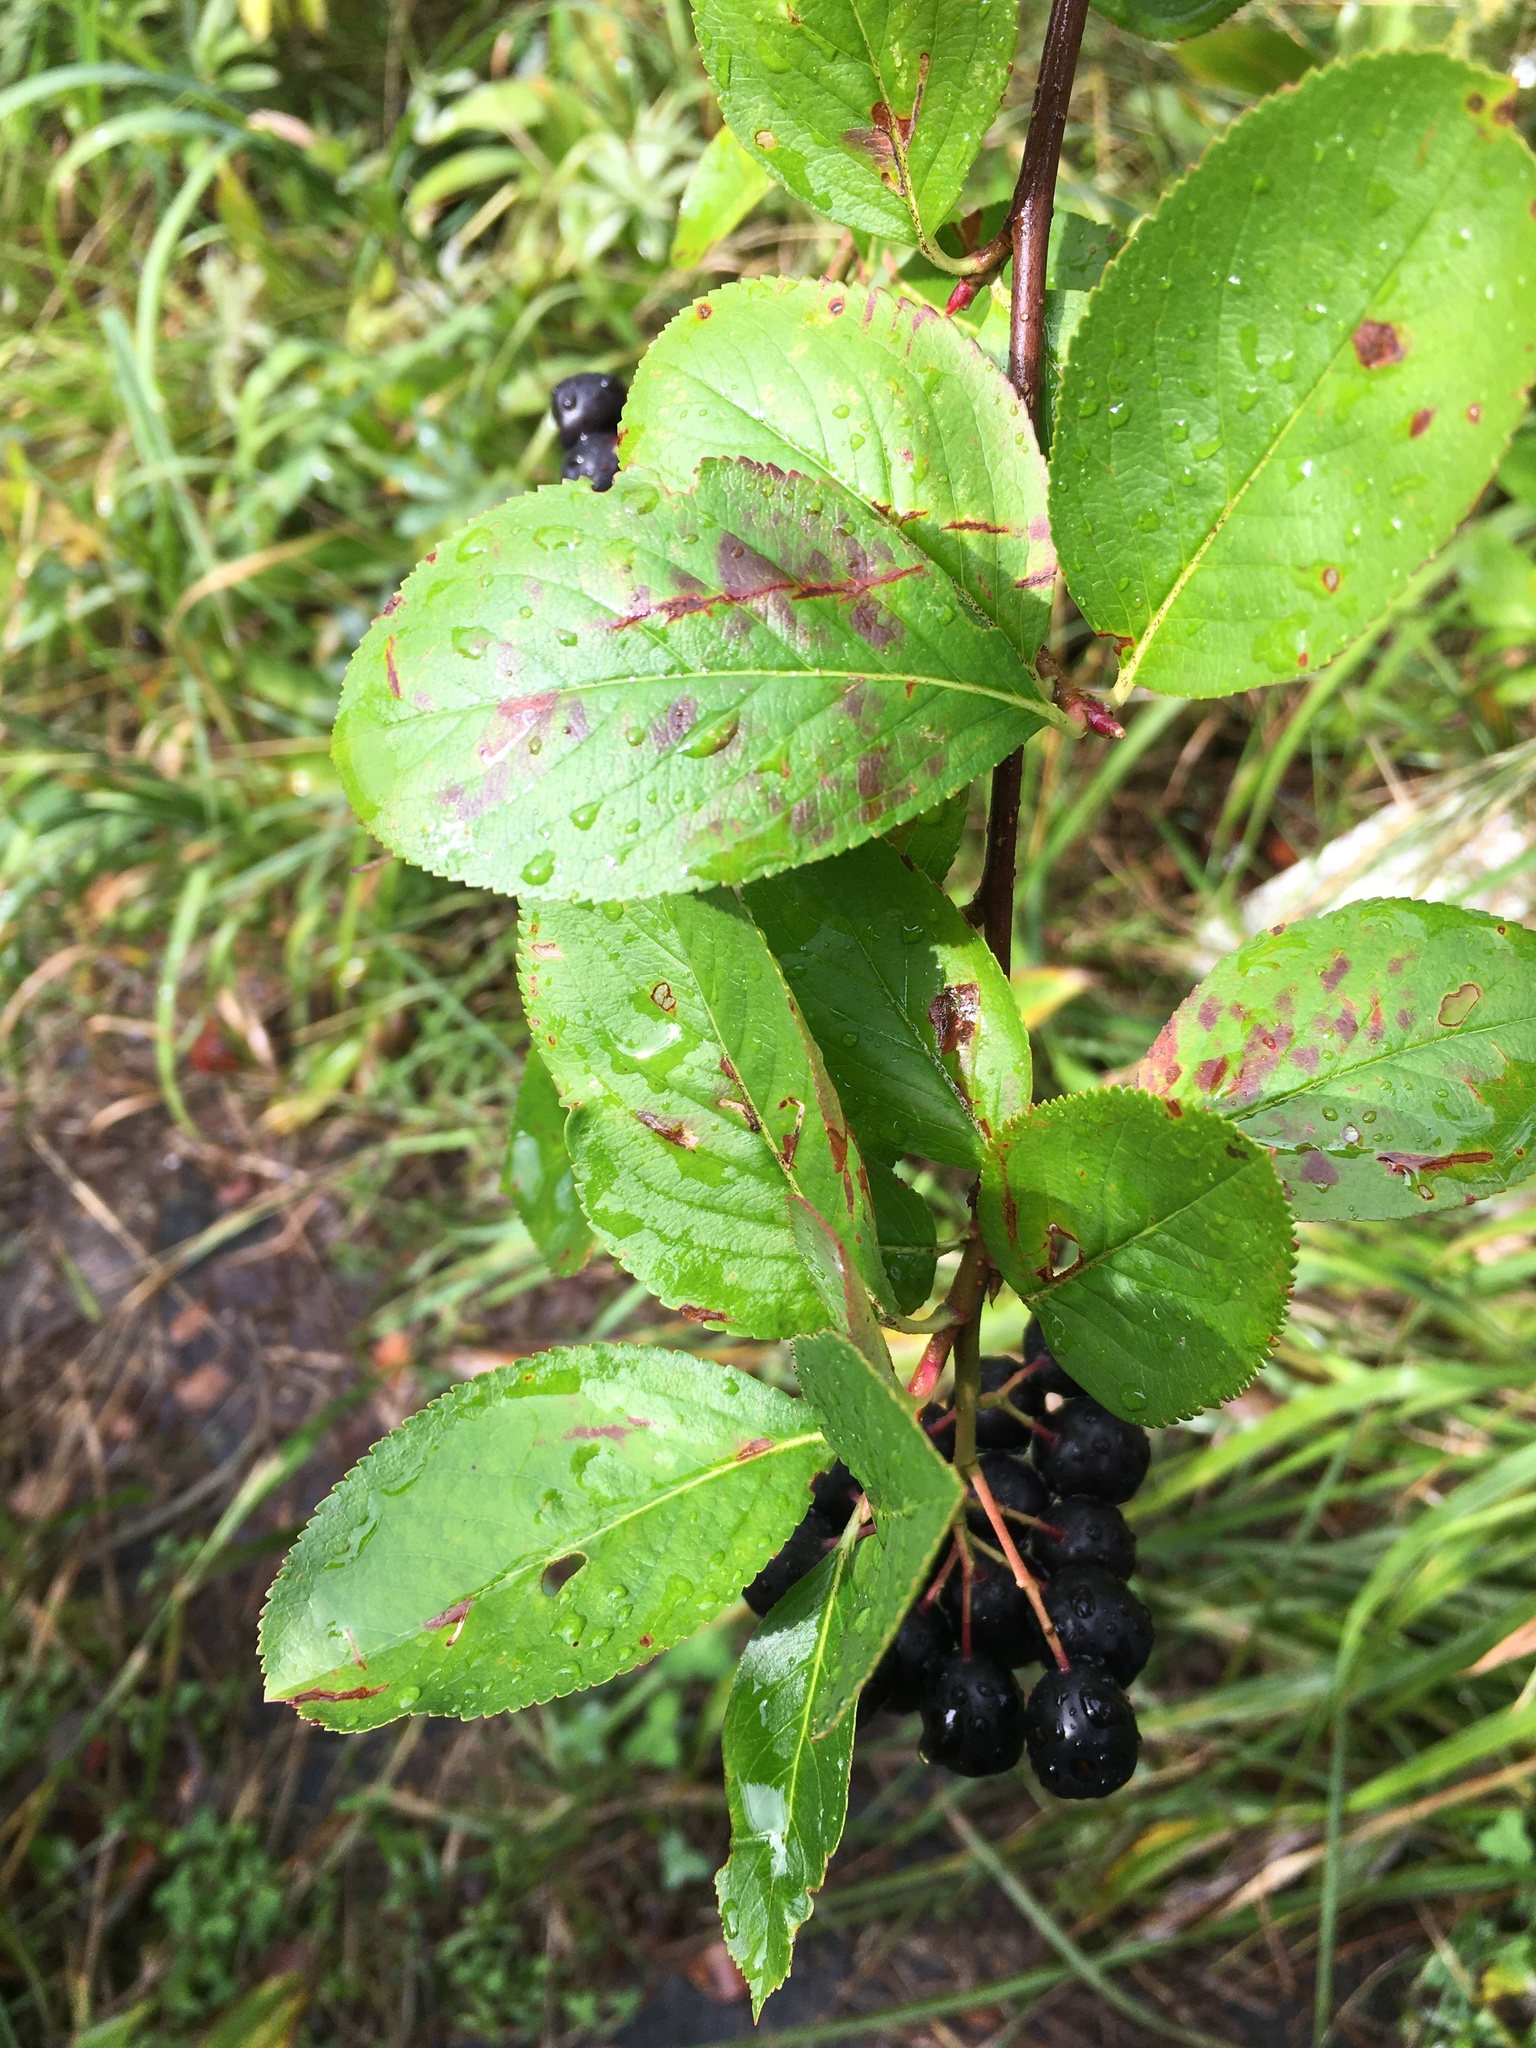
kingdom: Plantae
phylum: Tracheophyta
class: Magnoliopsida
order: Rosales
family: Rosaceae
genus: Sorbaronia
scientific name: Sorbaronia arsenii
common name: Arsène's mountain-ash
